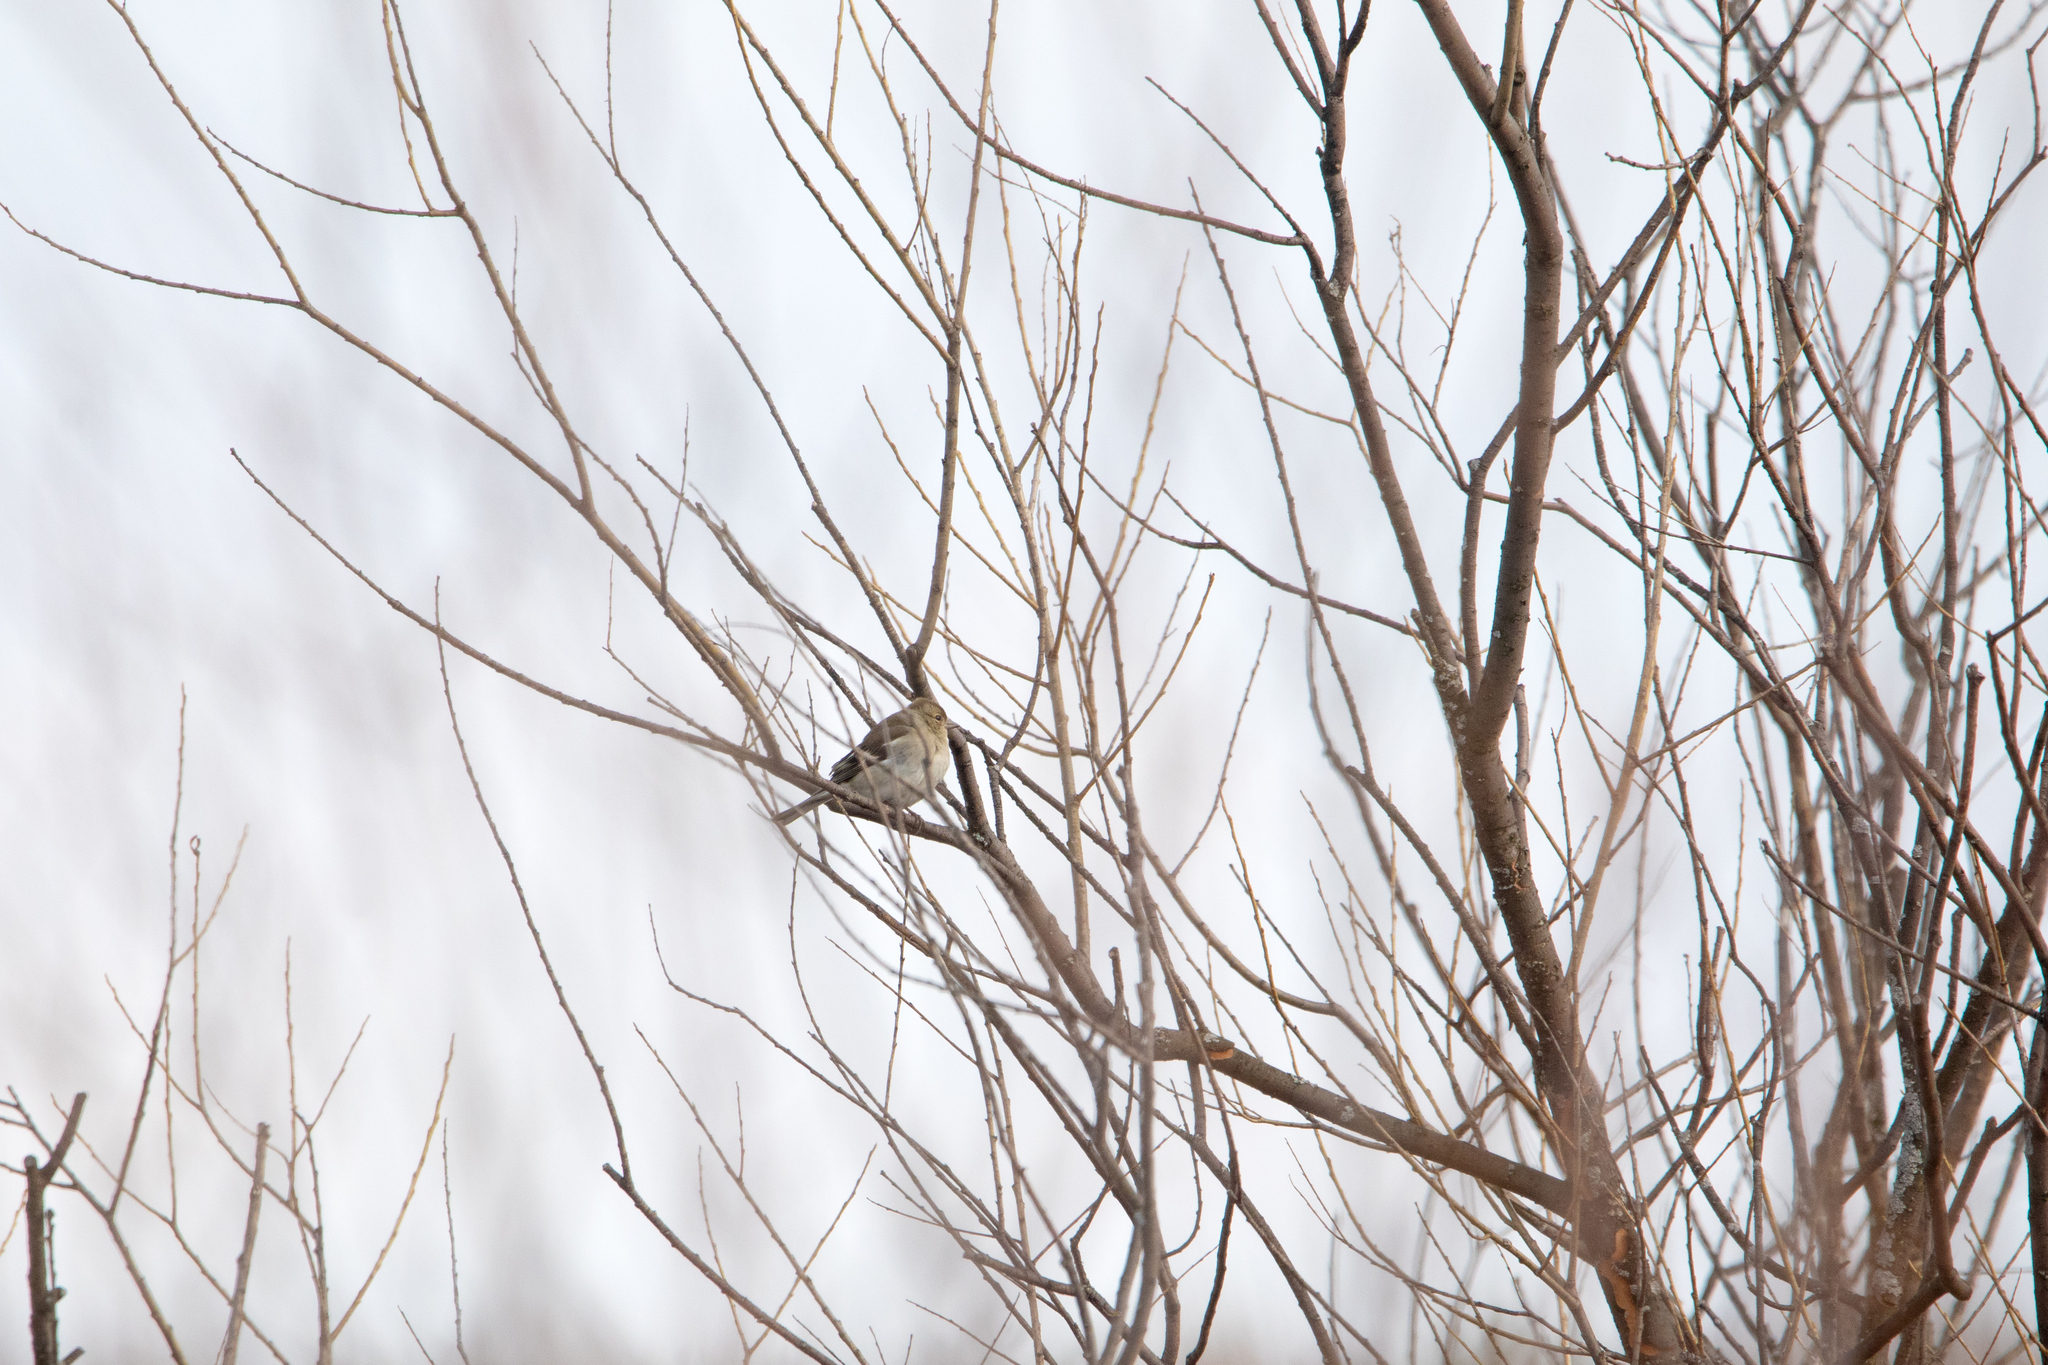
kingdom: Animalia
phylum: Chordata
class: Aves
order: Passeriformes
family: Fringillidae
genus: Fringilla
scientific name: Fringilla coelebs
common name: Common chaffinch
